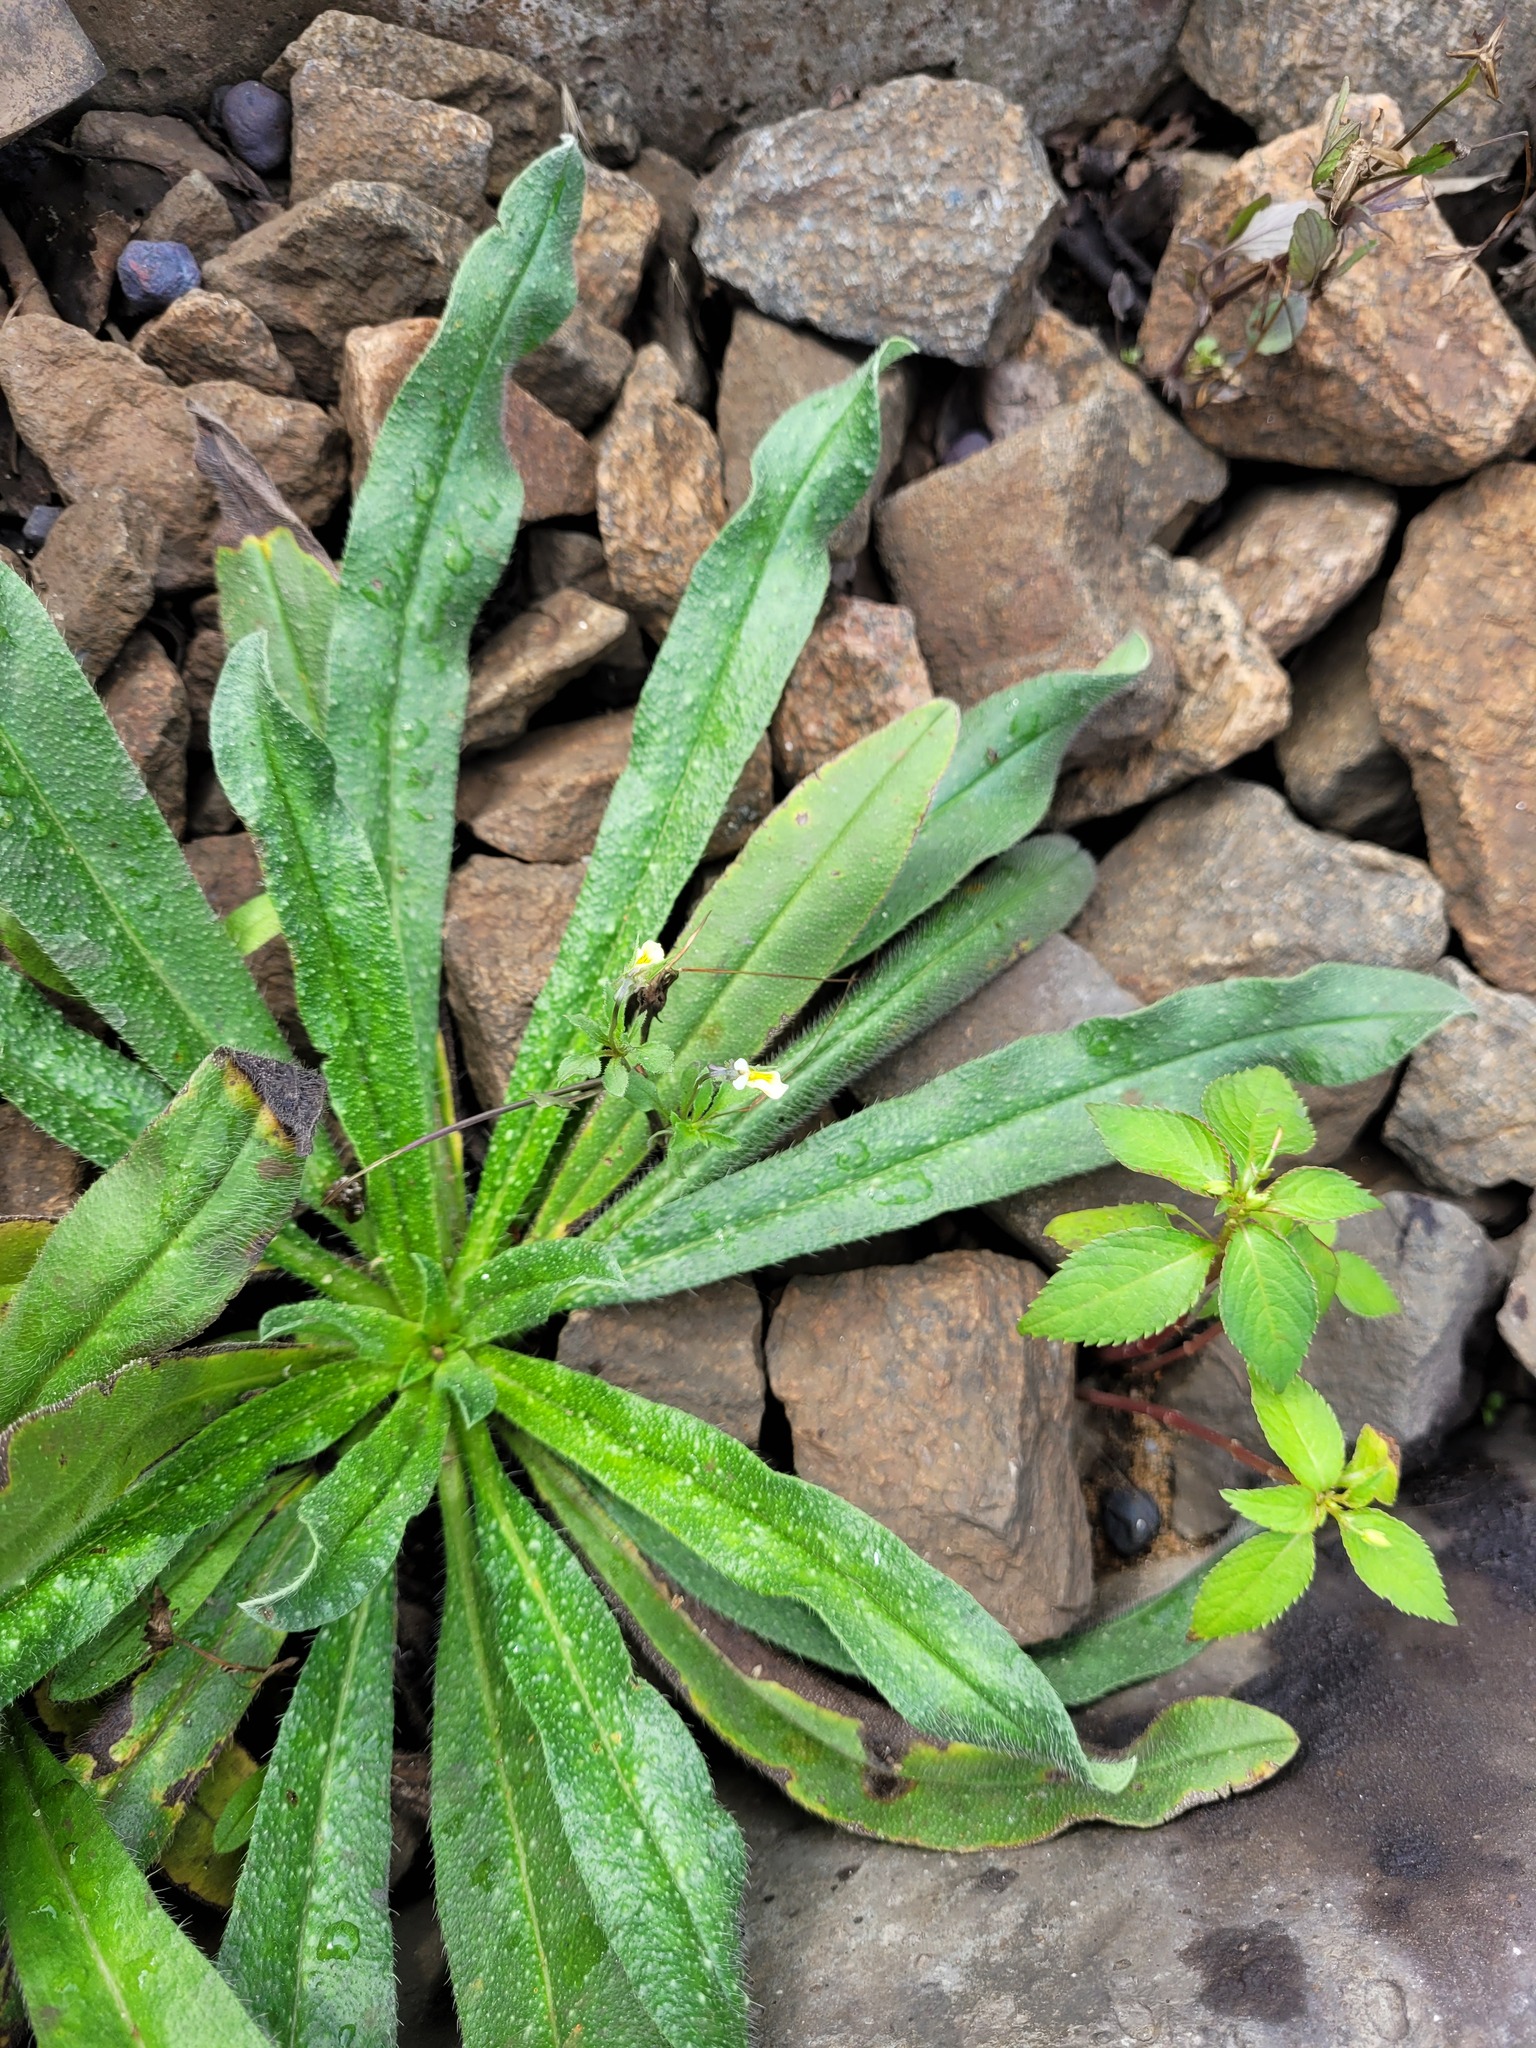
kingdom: Plantae
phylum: Tracheophyta
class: Magnoliopsida
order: Boraginales
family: Boraginaceae
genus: Echium
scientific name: Echium vulgare
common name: Common viper's bugloss
